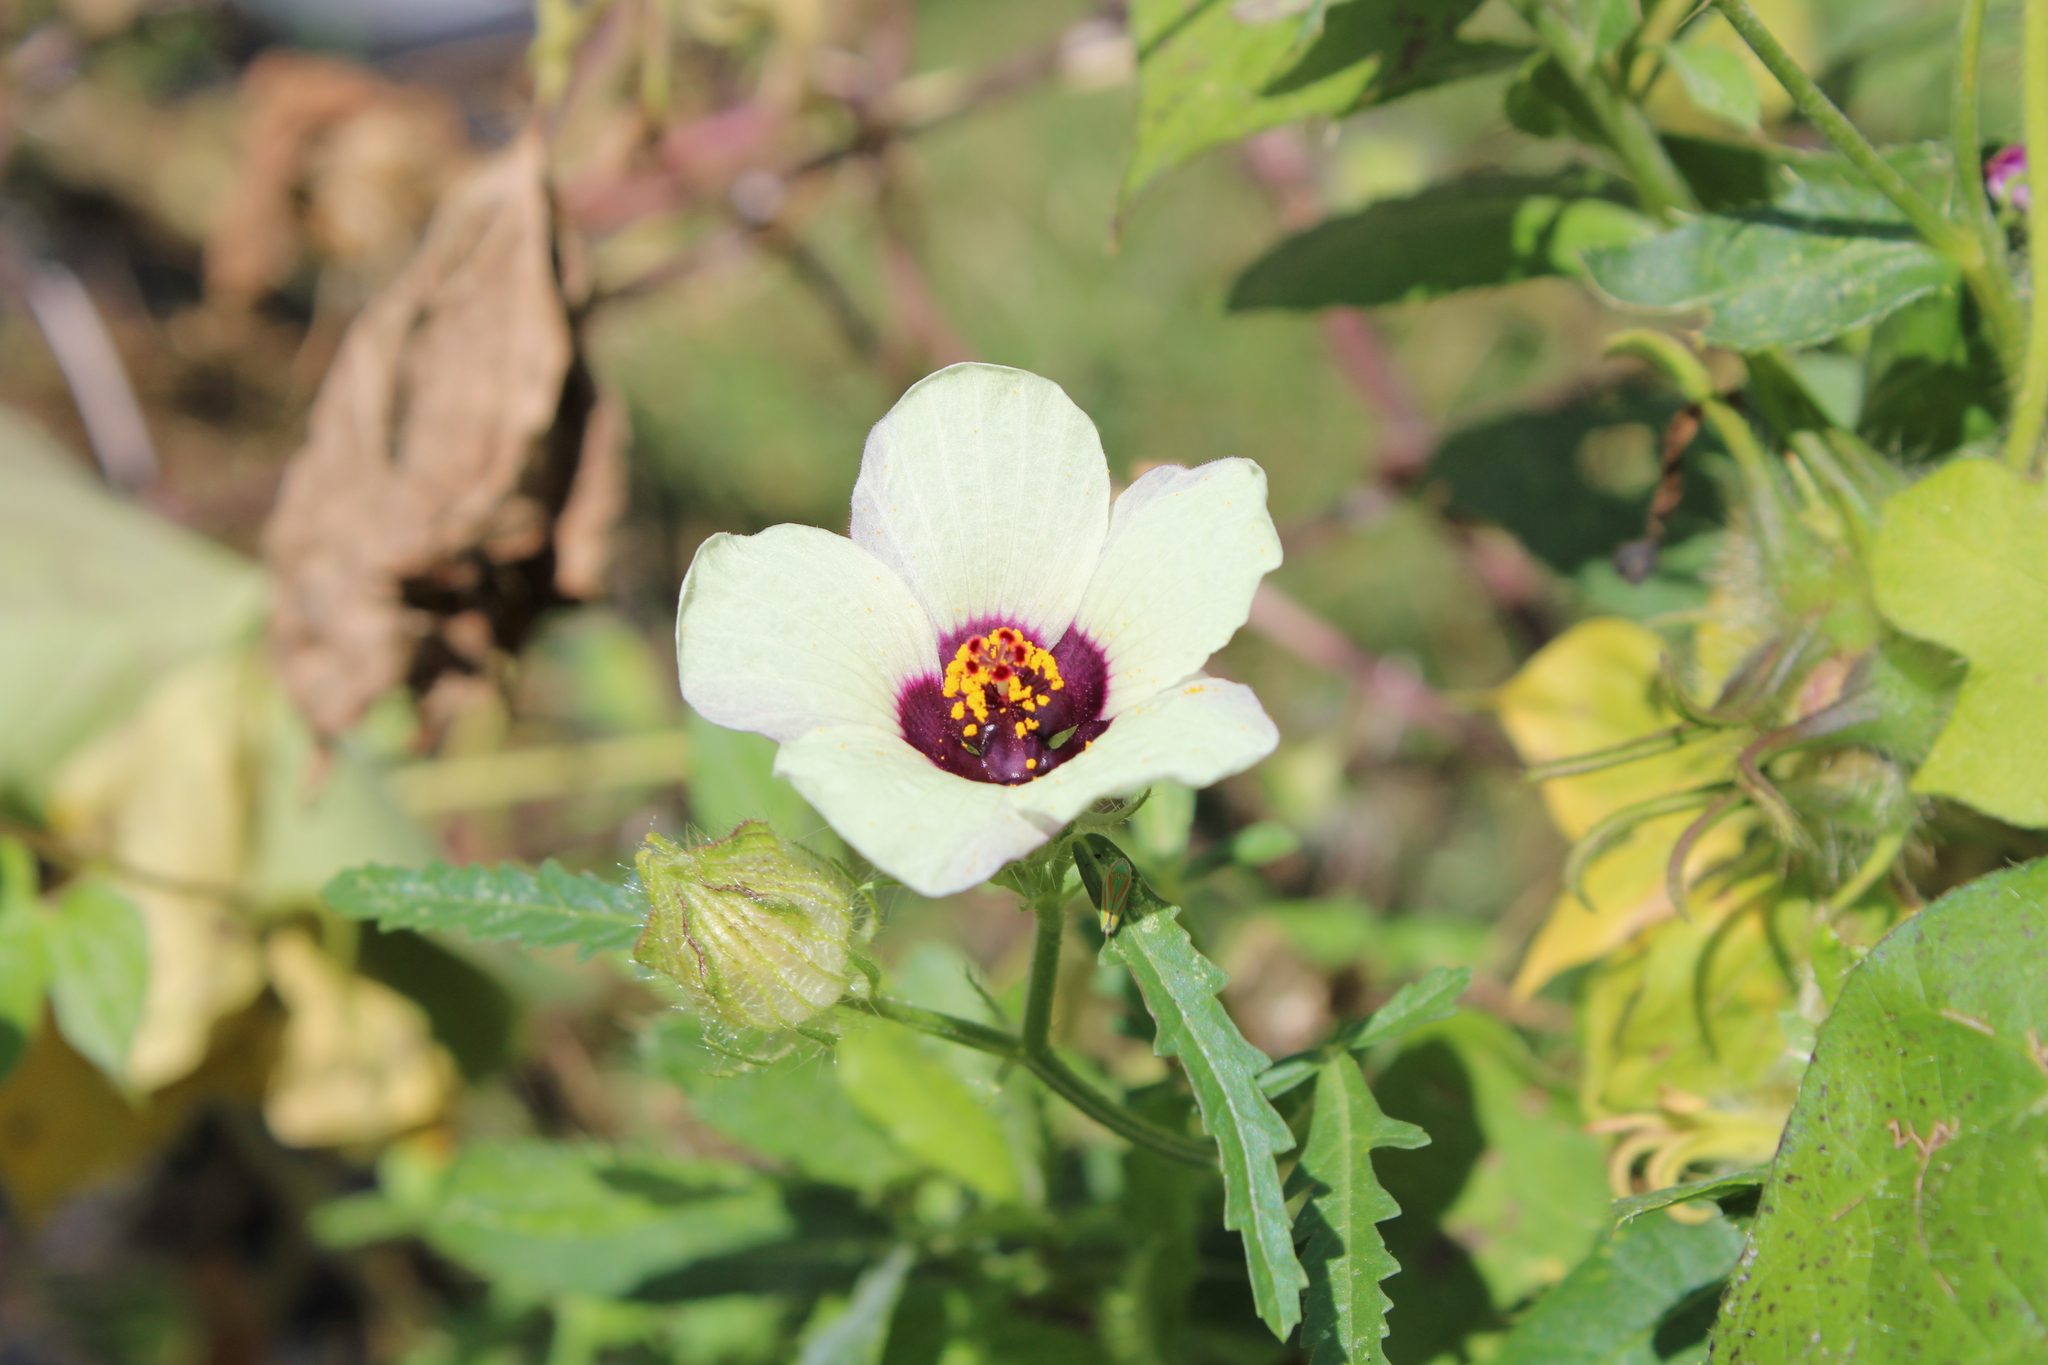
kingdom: Plantae
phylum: Tracheophyta
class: Magnoliopsida
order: Malvales
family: Malvaceae
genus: Hibiscus
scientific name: Hibiscus trionum
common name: Bladder ketmia
